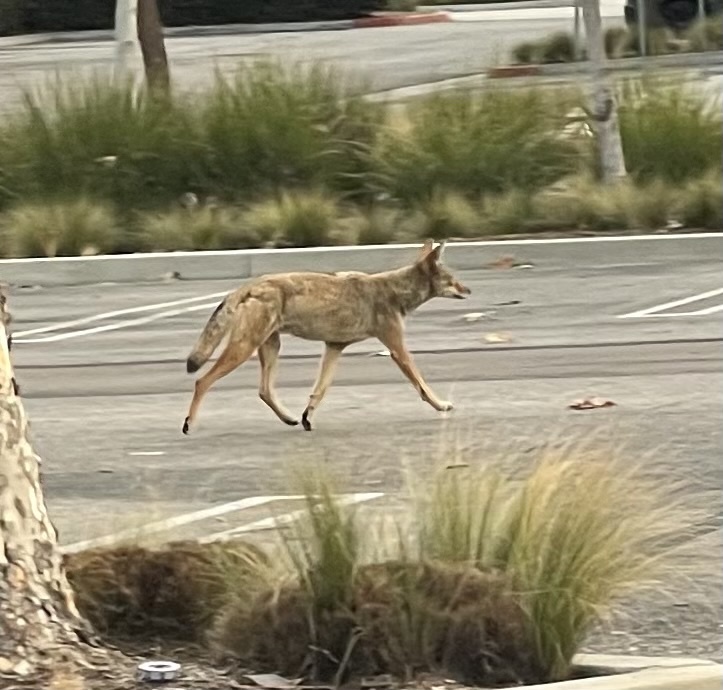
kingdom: Animalia
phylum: Chordata
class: Mammalia
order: Carnivora
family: Canidae
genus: Canis
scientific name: Canis latrans
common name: Coyote
